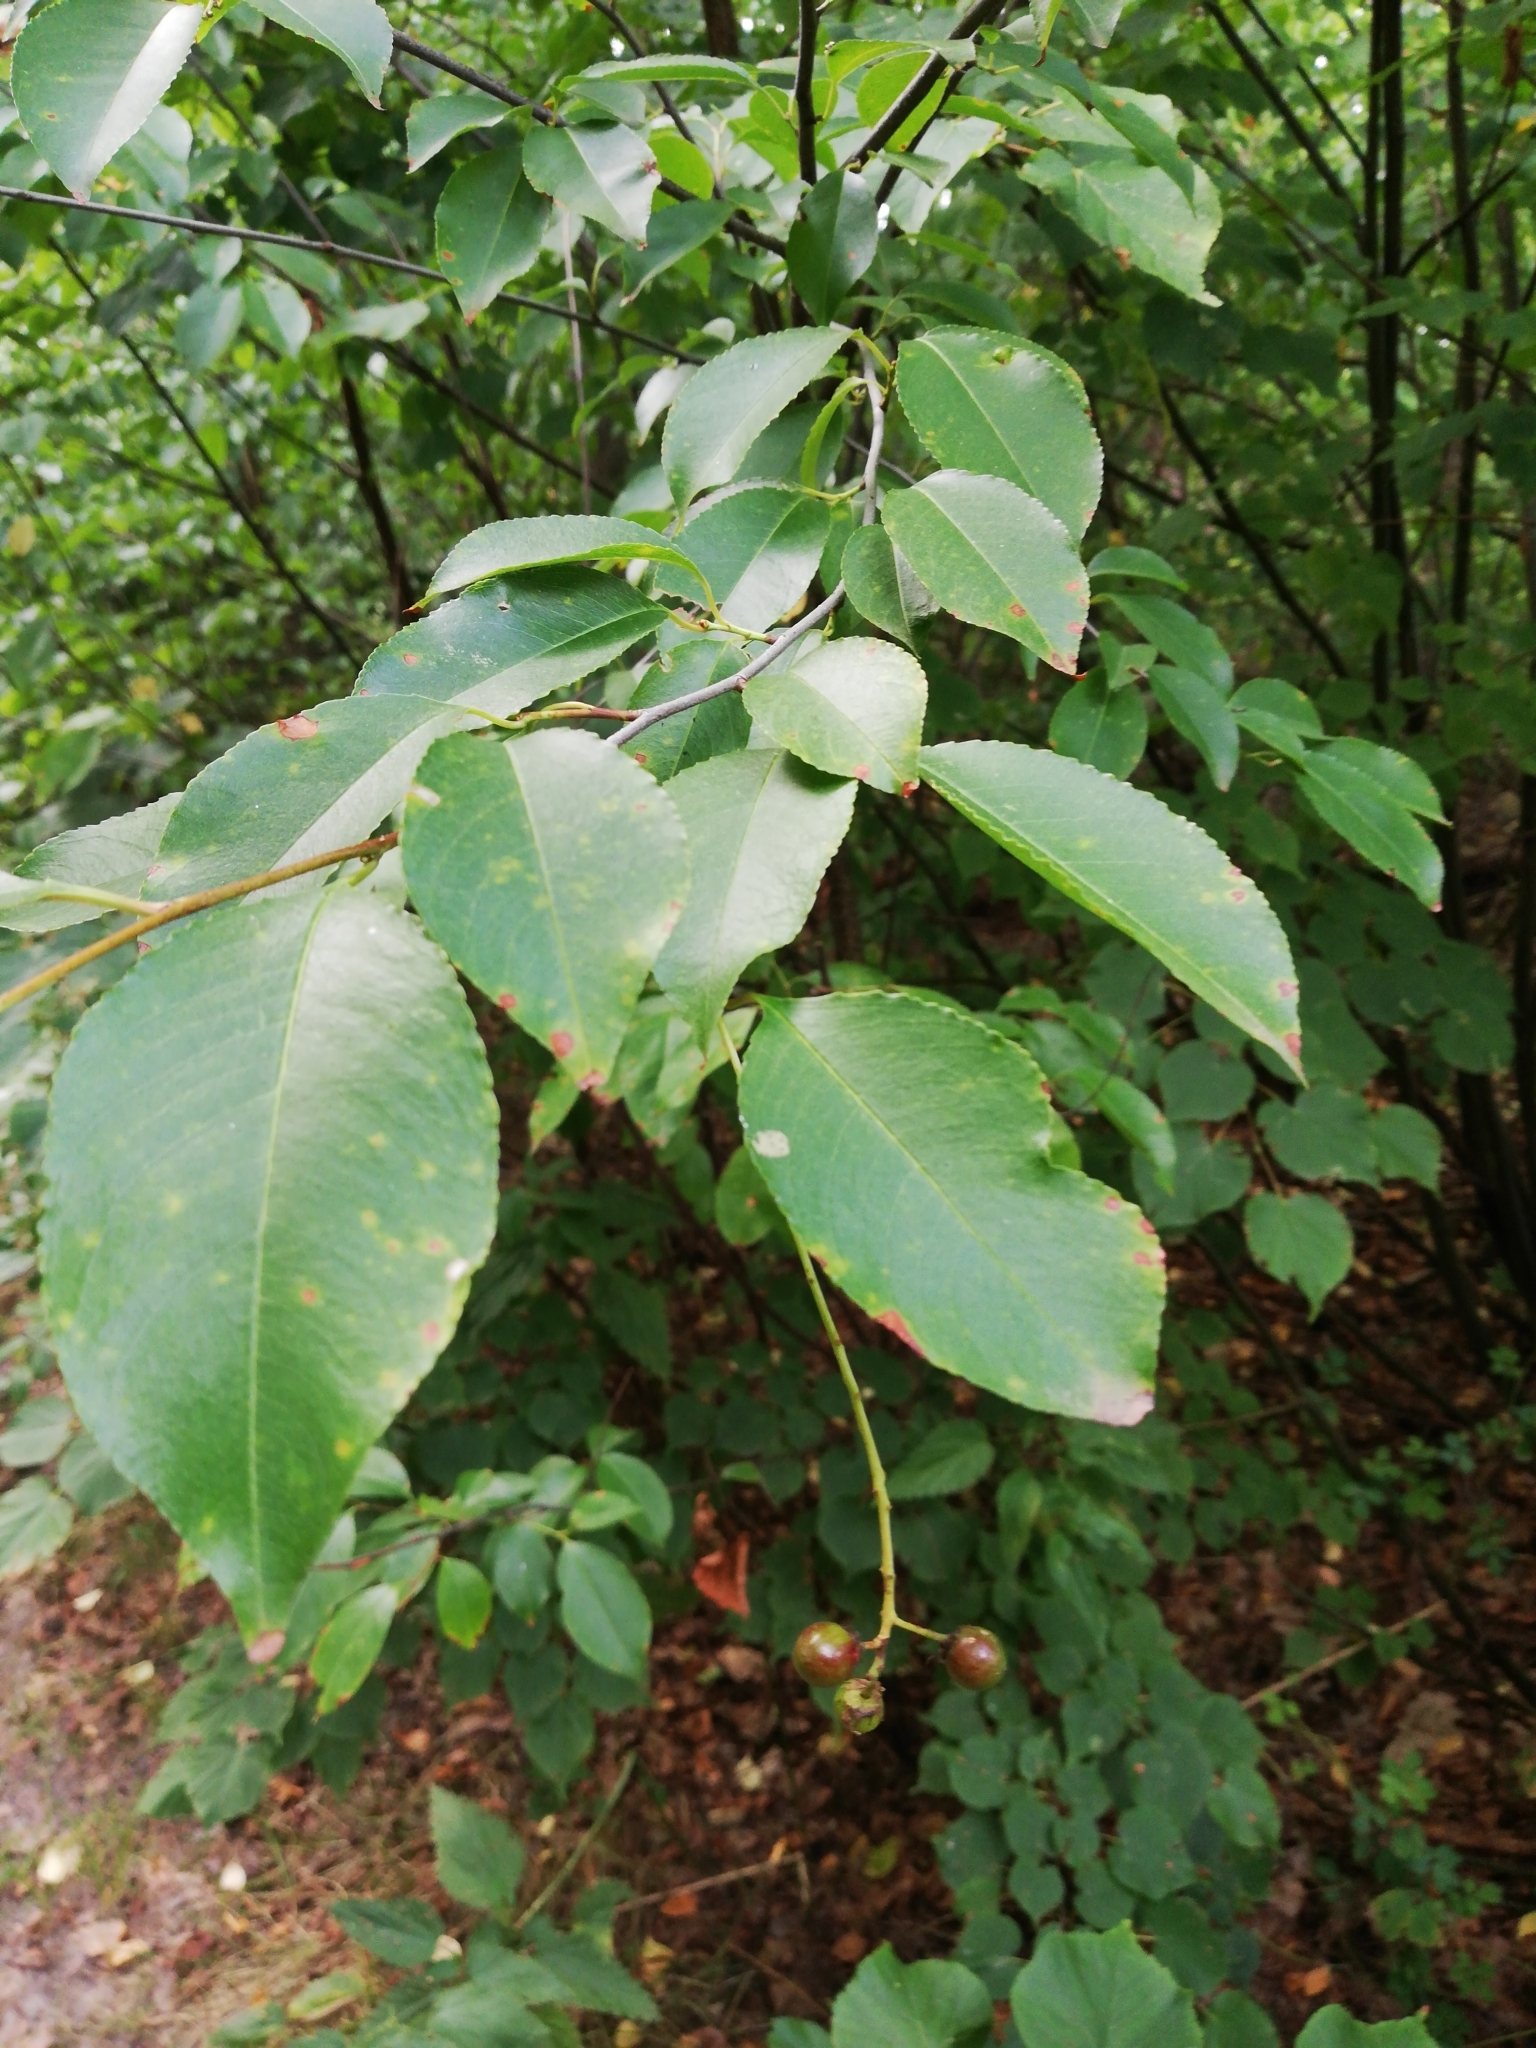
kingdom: Plantae
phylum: Tracheophyta
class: Magnoliopsida
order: Rosales
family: Rosaceae
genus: Prunus
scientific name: Prunus serotina
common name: Black cherry
